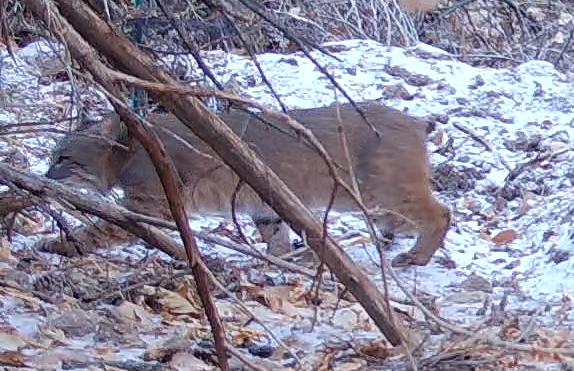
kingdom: Animalia
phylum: Chordata
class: Mammalia
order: Carnivora
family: Felidae
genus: Lynx
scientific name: Lynx rufus
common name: Bobcat
